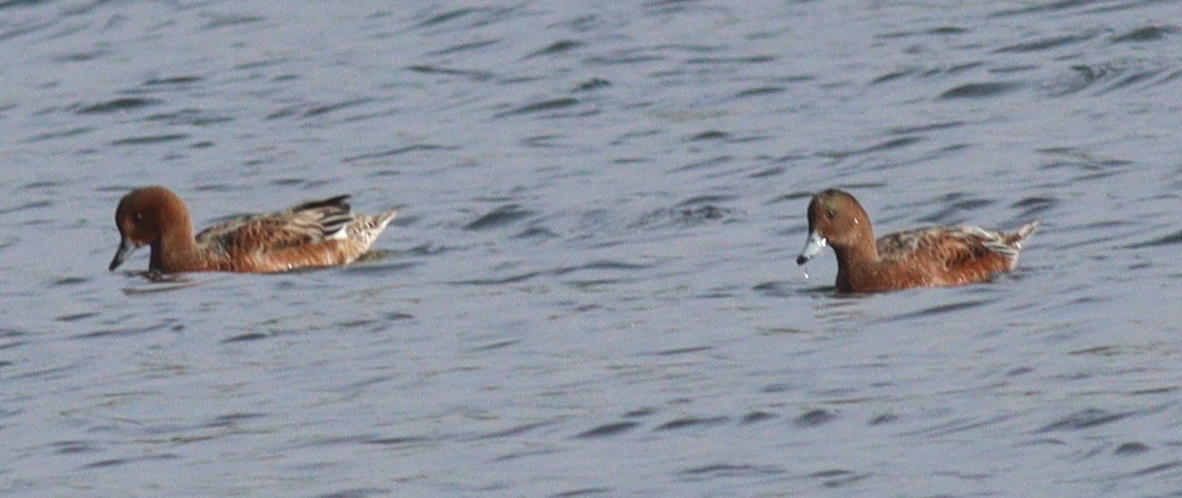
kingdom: Animalia
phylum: Chordata
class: Aves
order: Anseriformes
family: Anatidae
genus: Mareca
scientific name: Mareca penelope
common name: Eurasian wigeon
